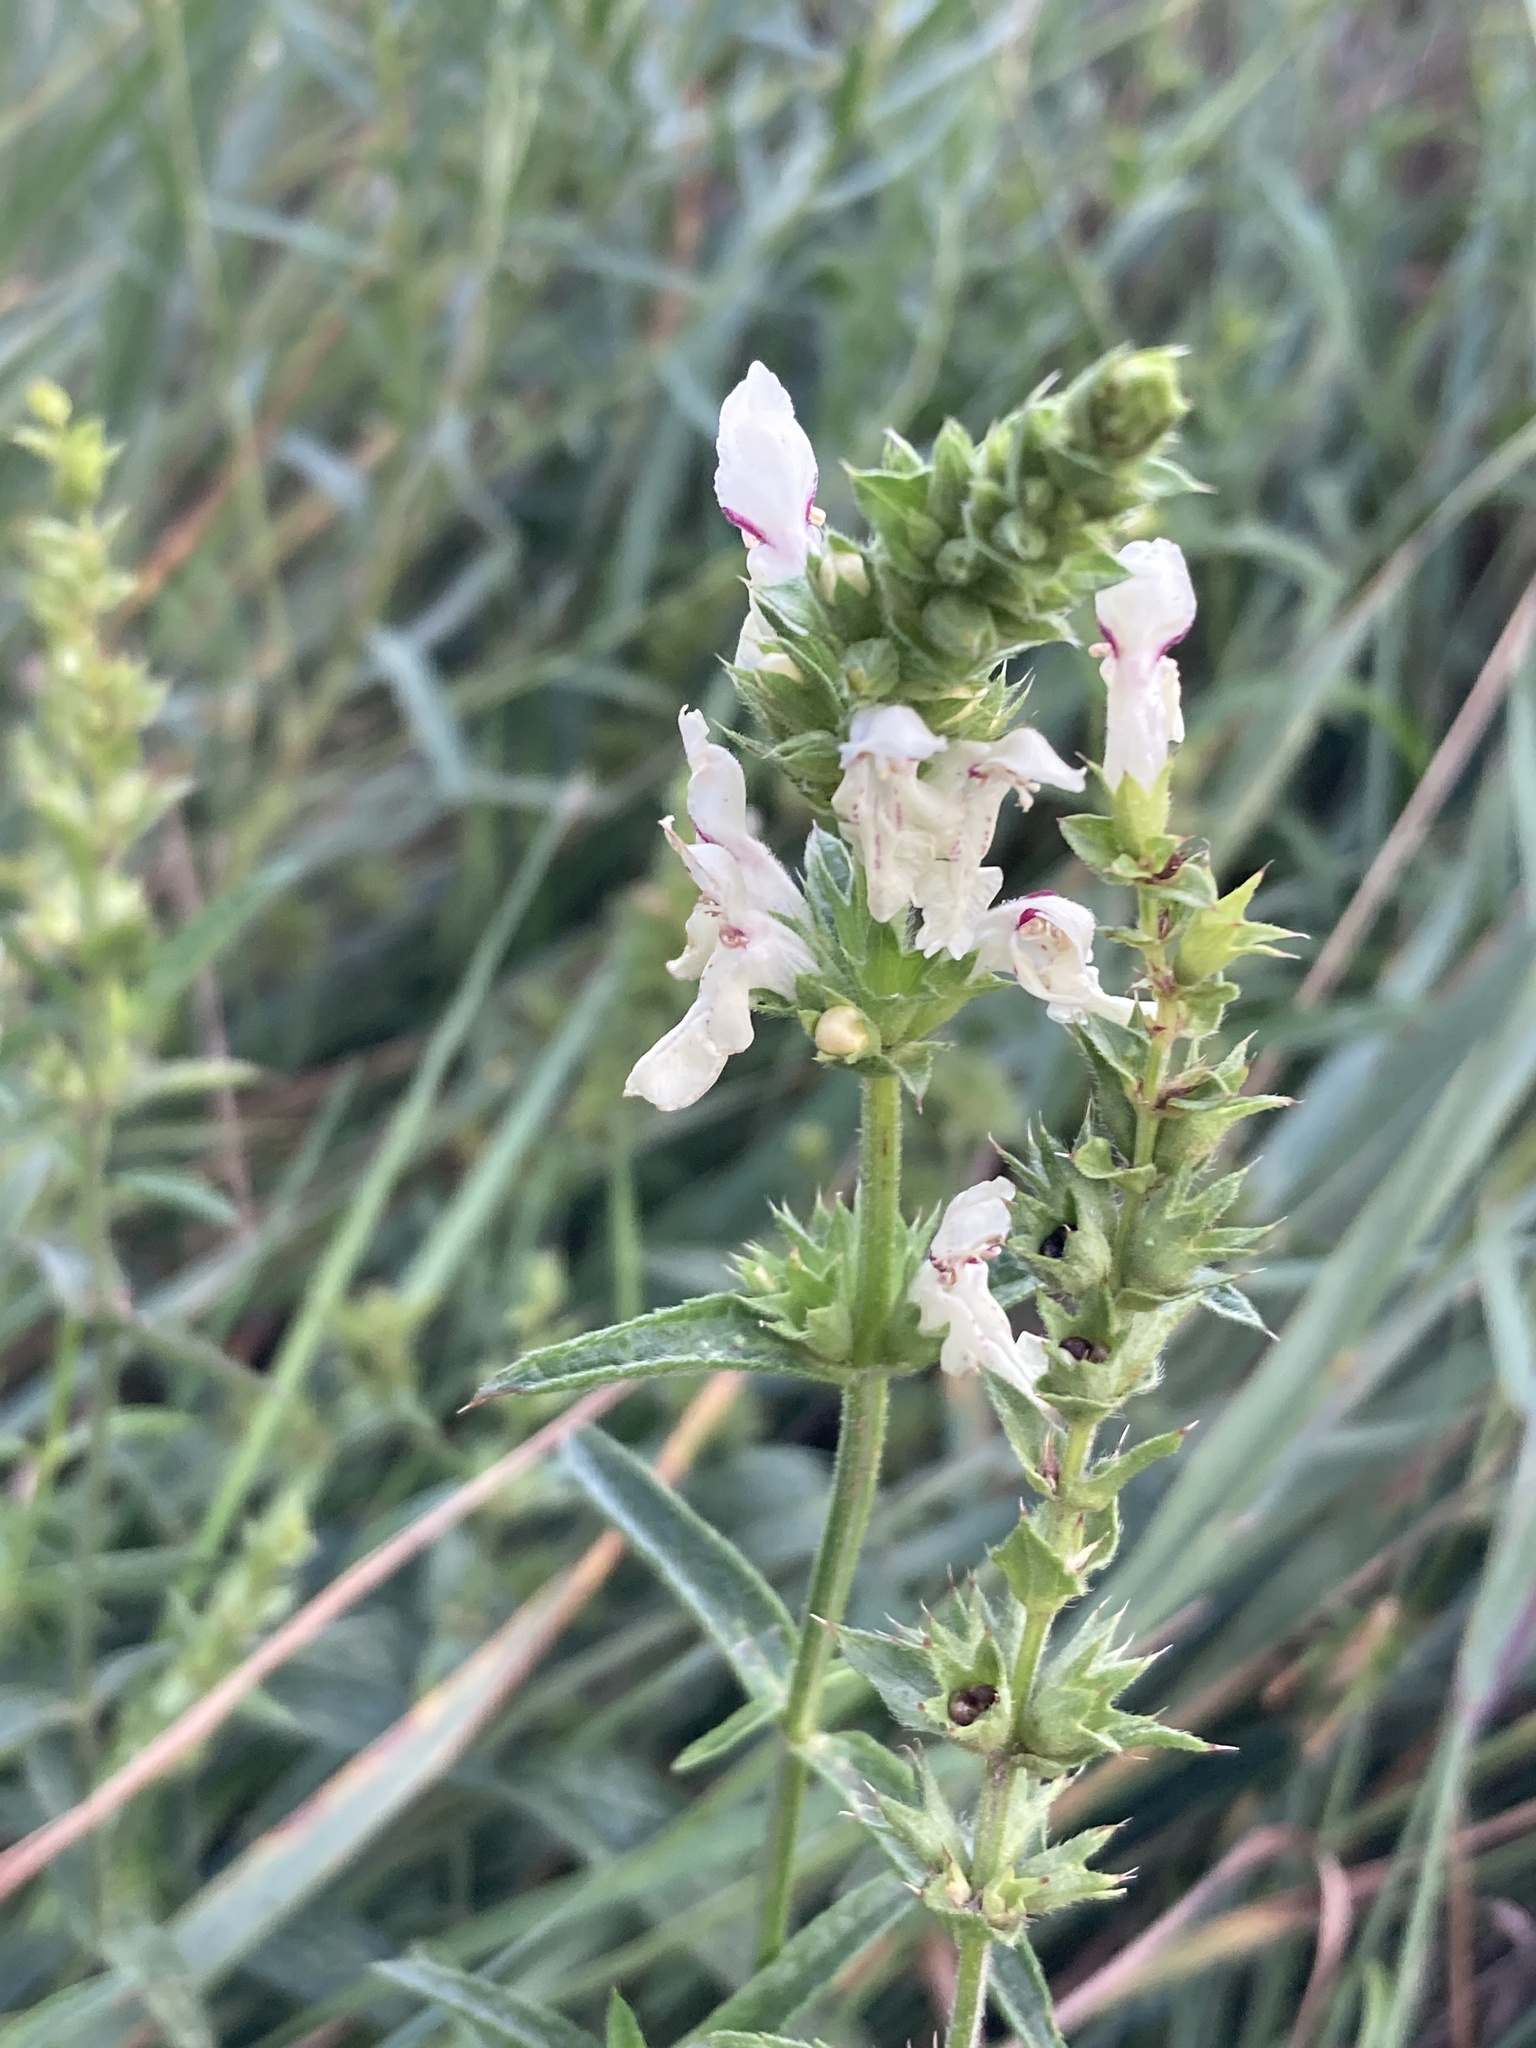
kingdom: Plantae
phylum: Tracheophyta
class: Magnoliopsida
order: Lamiales
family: Lamiaceae
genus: Stachys
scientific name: Stachys recta
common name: Perennial yellow-woundwort
